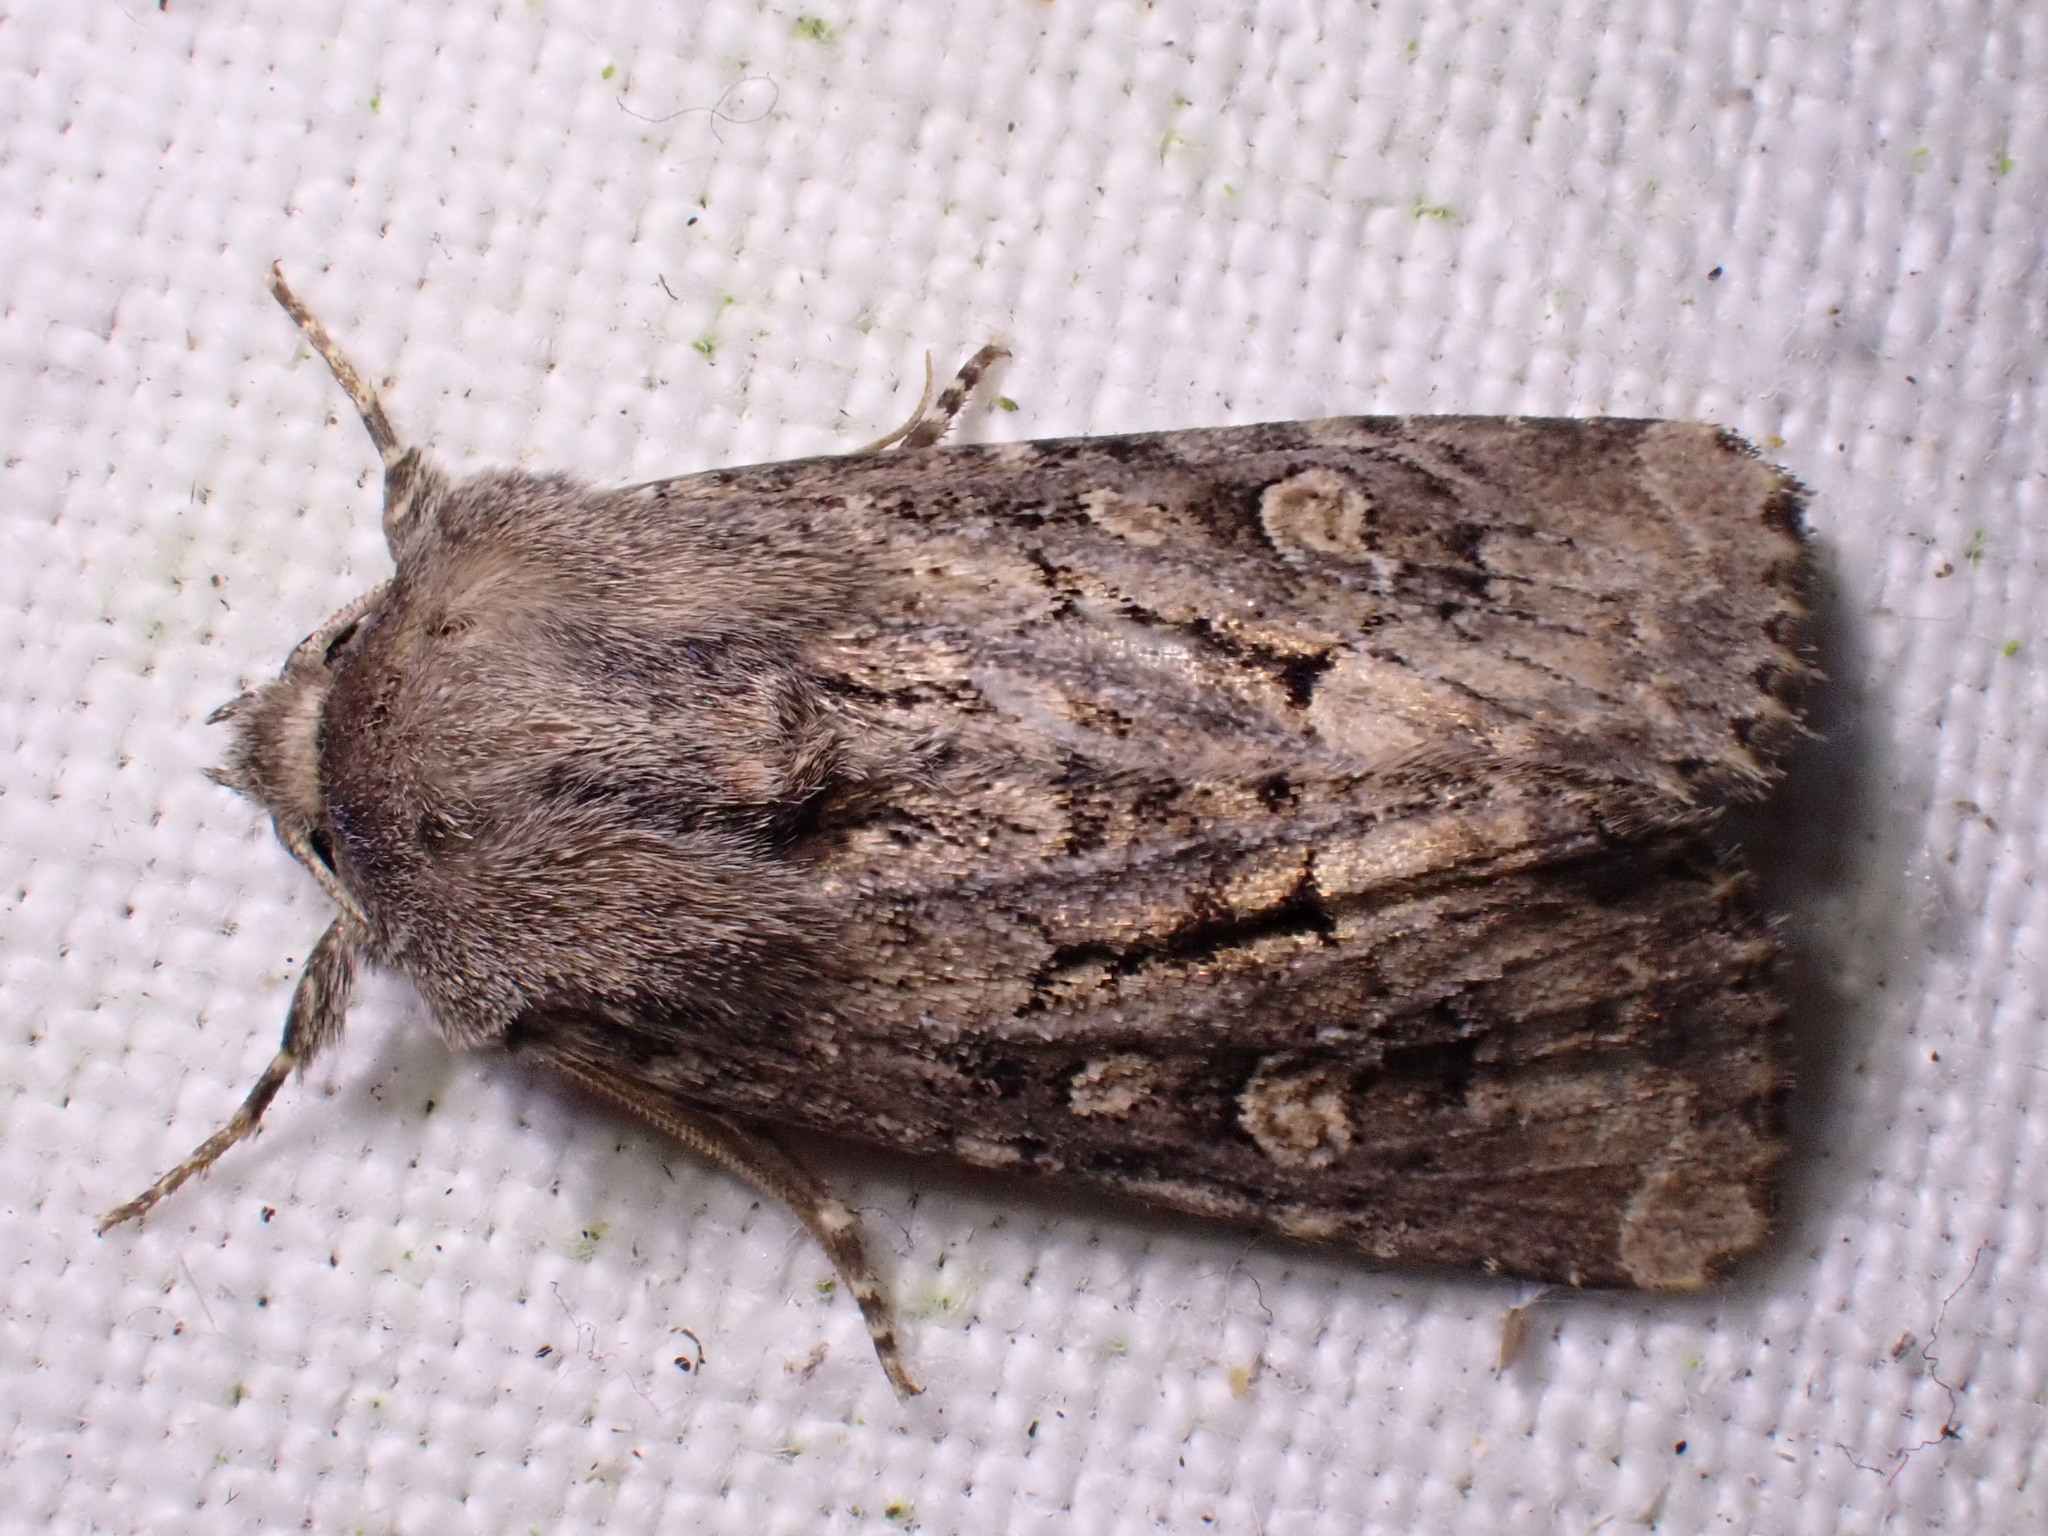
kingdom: Animalia
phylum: Arthropoda
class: Insecta
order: Lepidoptera
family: Noctuidae
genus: Luperina
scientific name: Luperina testacea
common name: Flounced rustic
